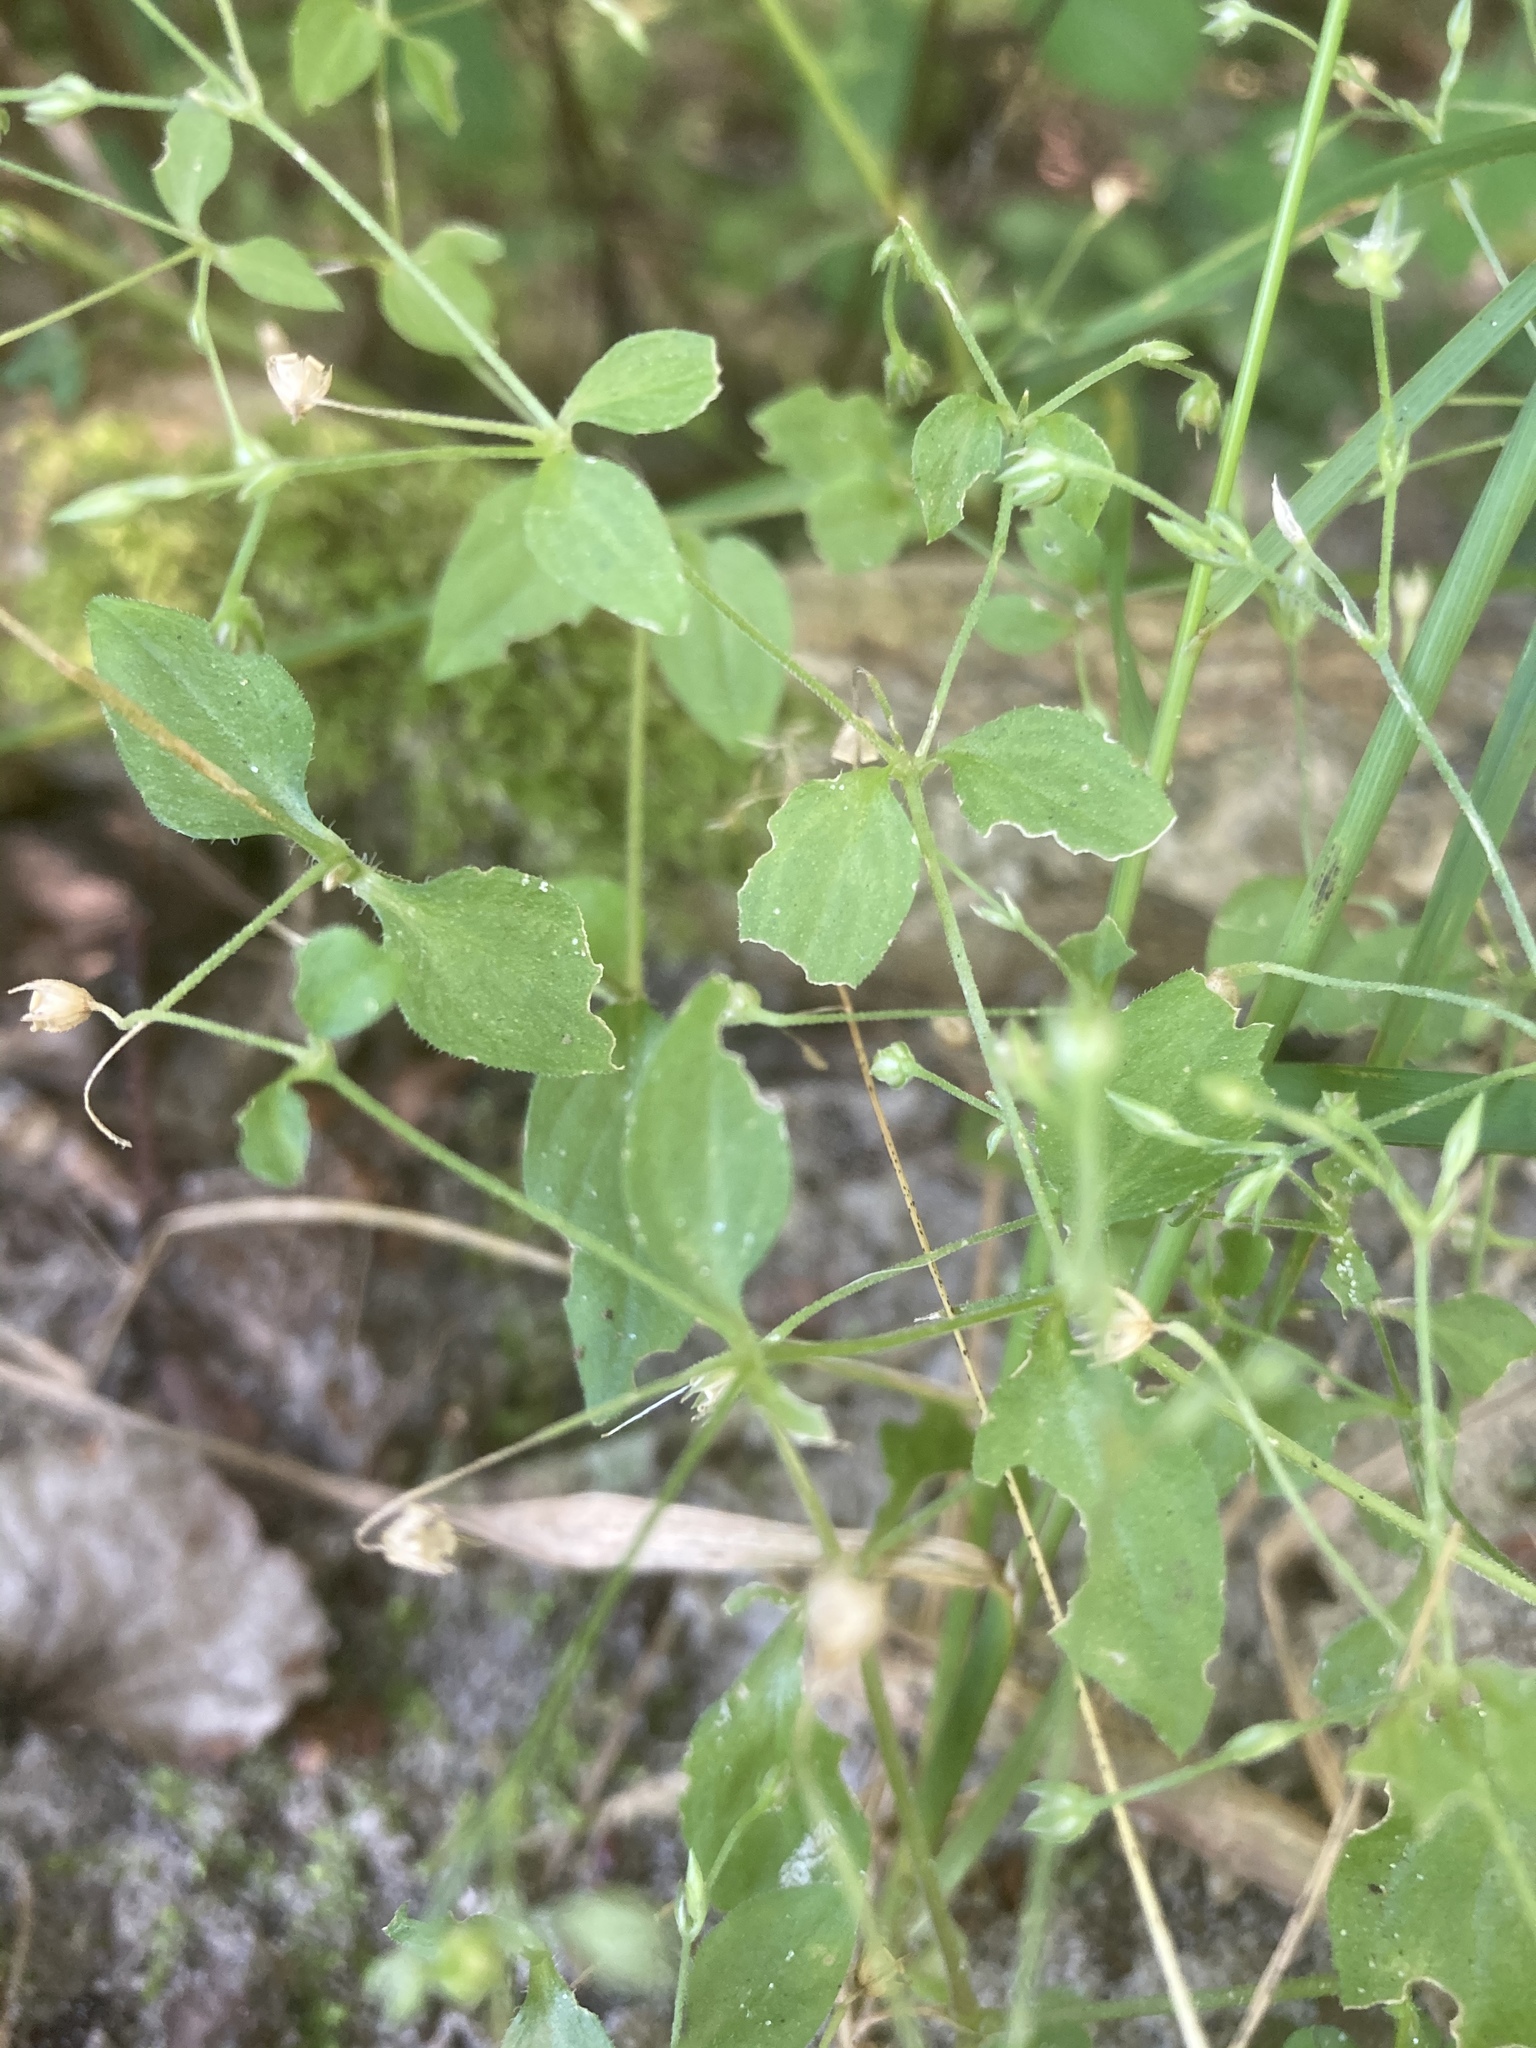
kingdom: Plantae
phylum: Tracheophyta
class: Magnoliopsida
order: Caryophyllales
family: Caryophyllaceae
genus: Moehringia
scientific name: Moehringia trinervia
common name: Three-nerved sandwort
